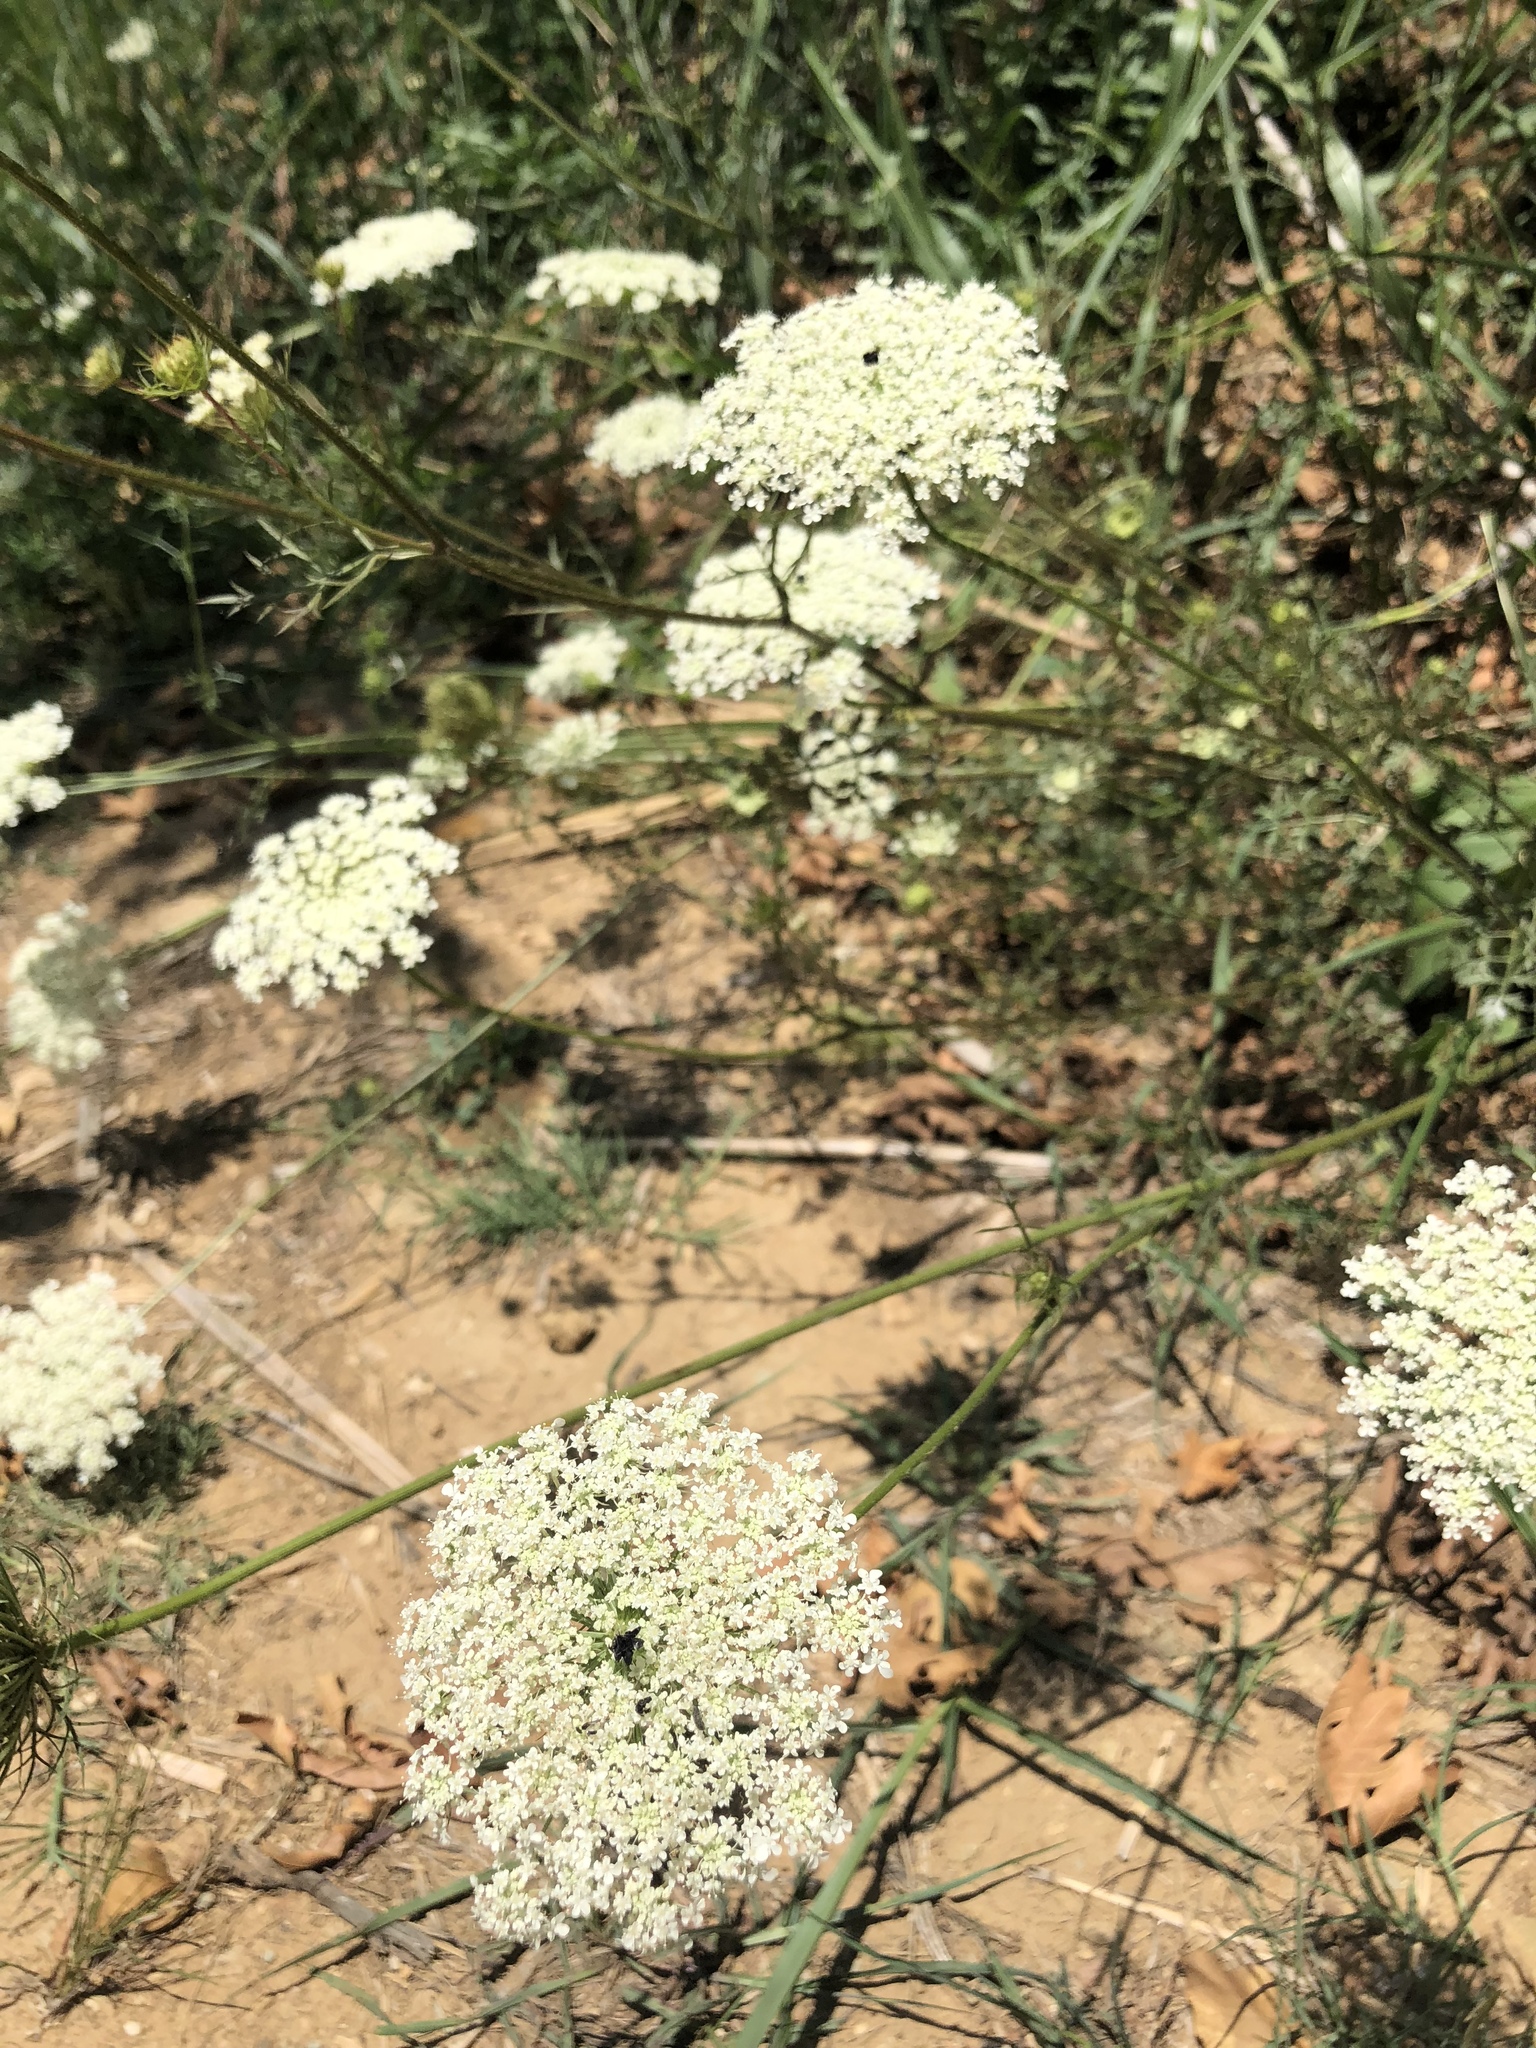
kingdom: Plantae
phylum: Tracheophyta
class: Magnoliopsida
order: Apiales
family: Apiaceae
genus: Daucus
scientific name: Daucus carota
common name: Wild carrot
